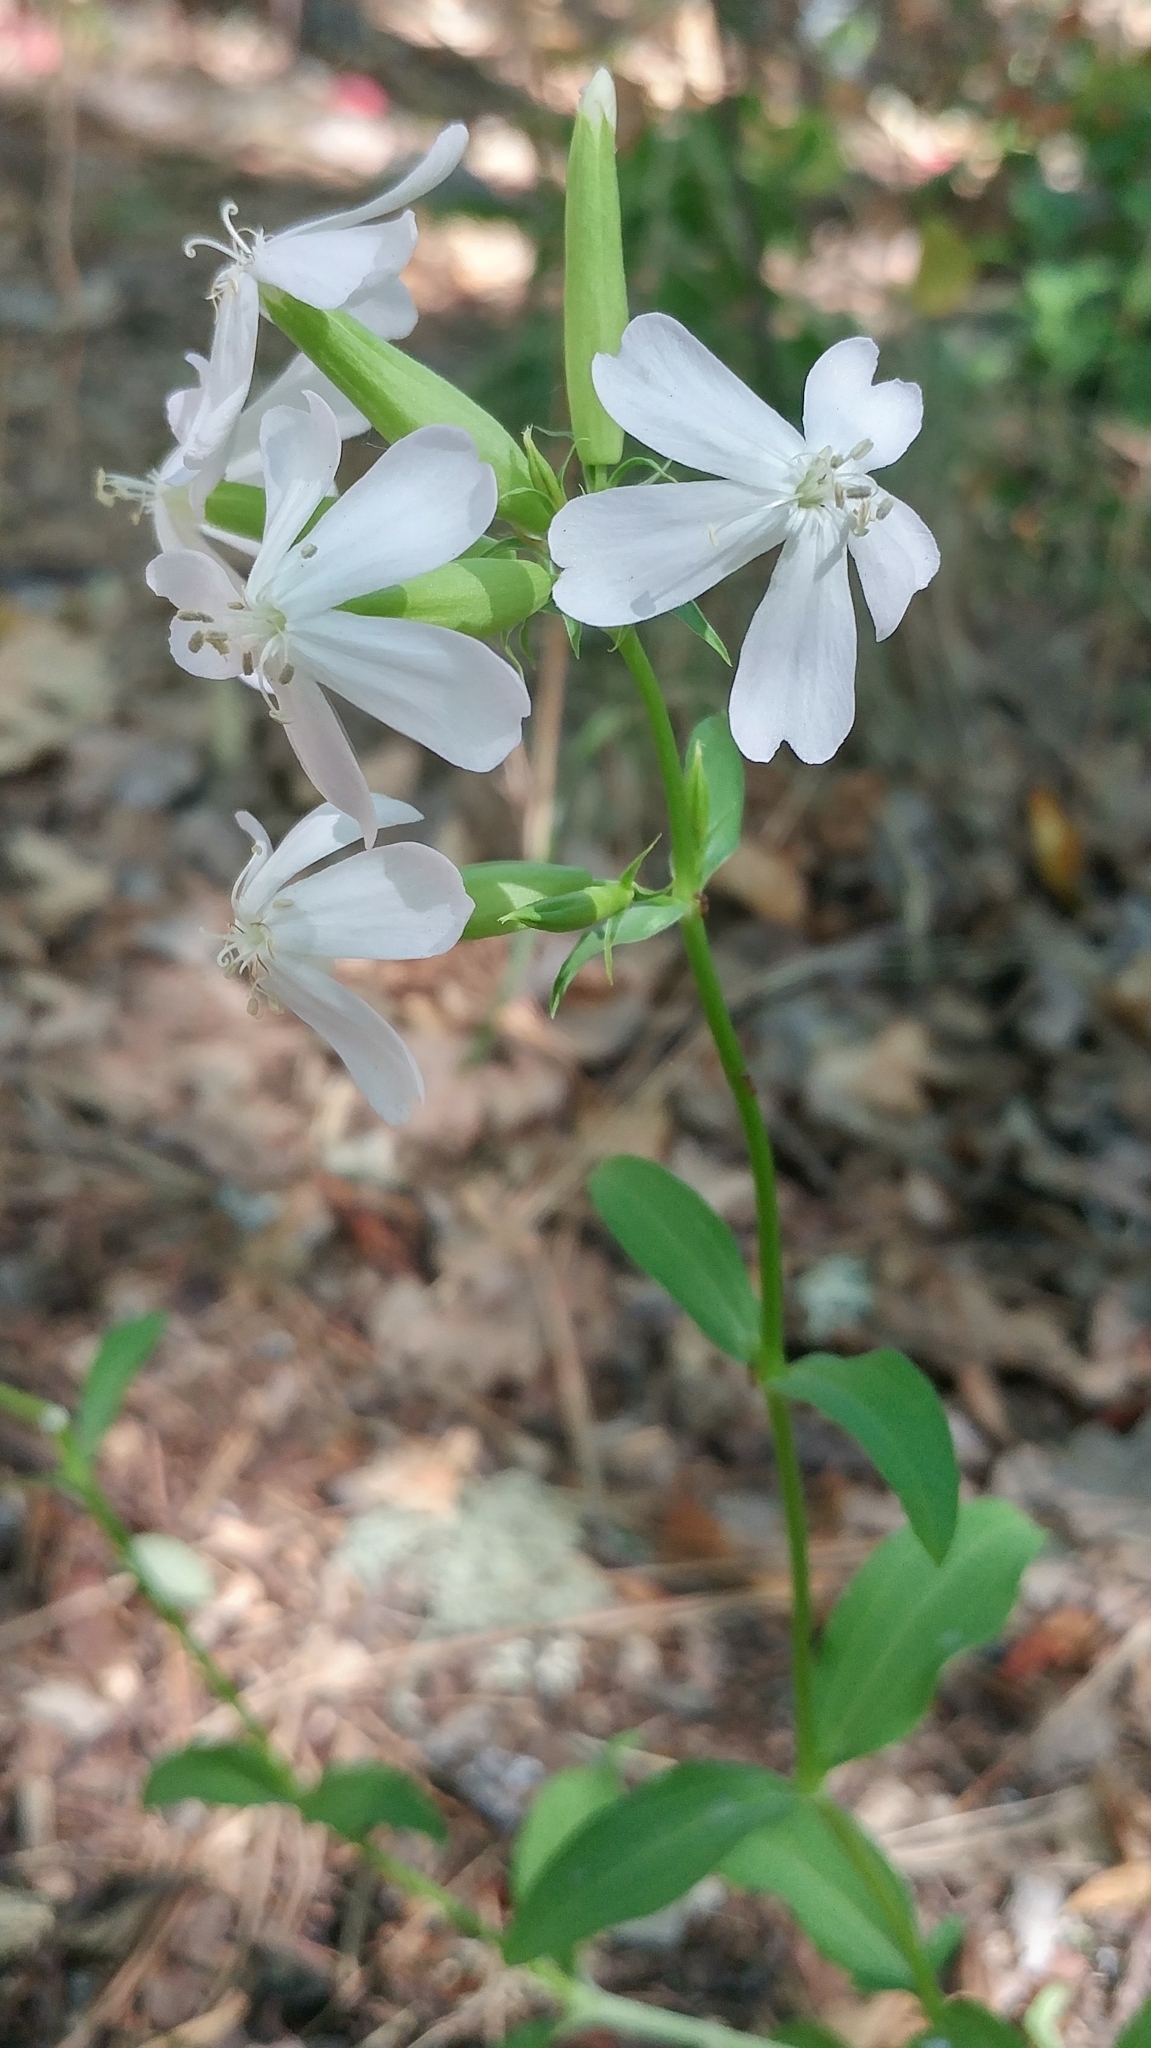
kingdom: Plantae
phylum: Tracheophyta
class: Magnoliopsida
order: Caryophyllales
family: Caryophyllaceae
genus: Saponaria
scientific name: Saponaria officinalis
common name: Soapwort
